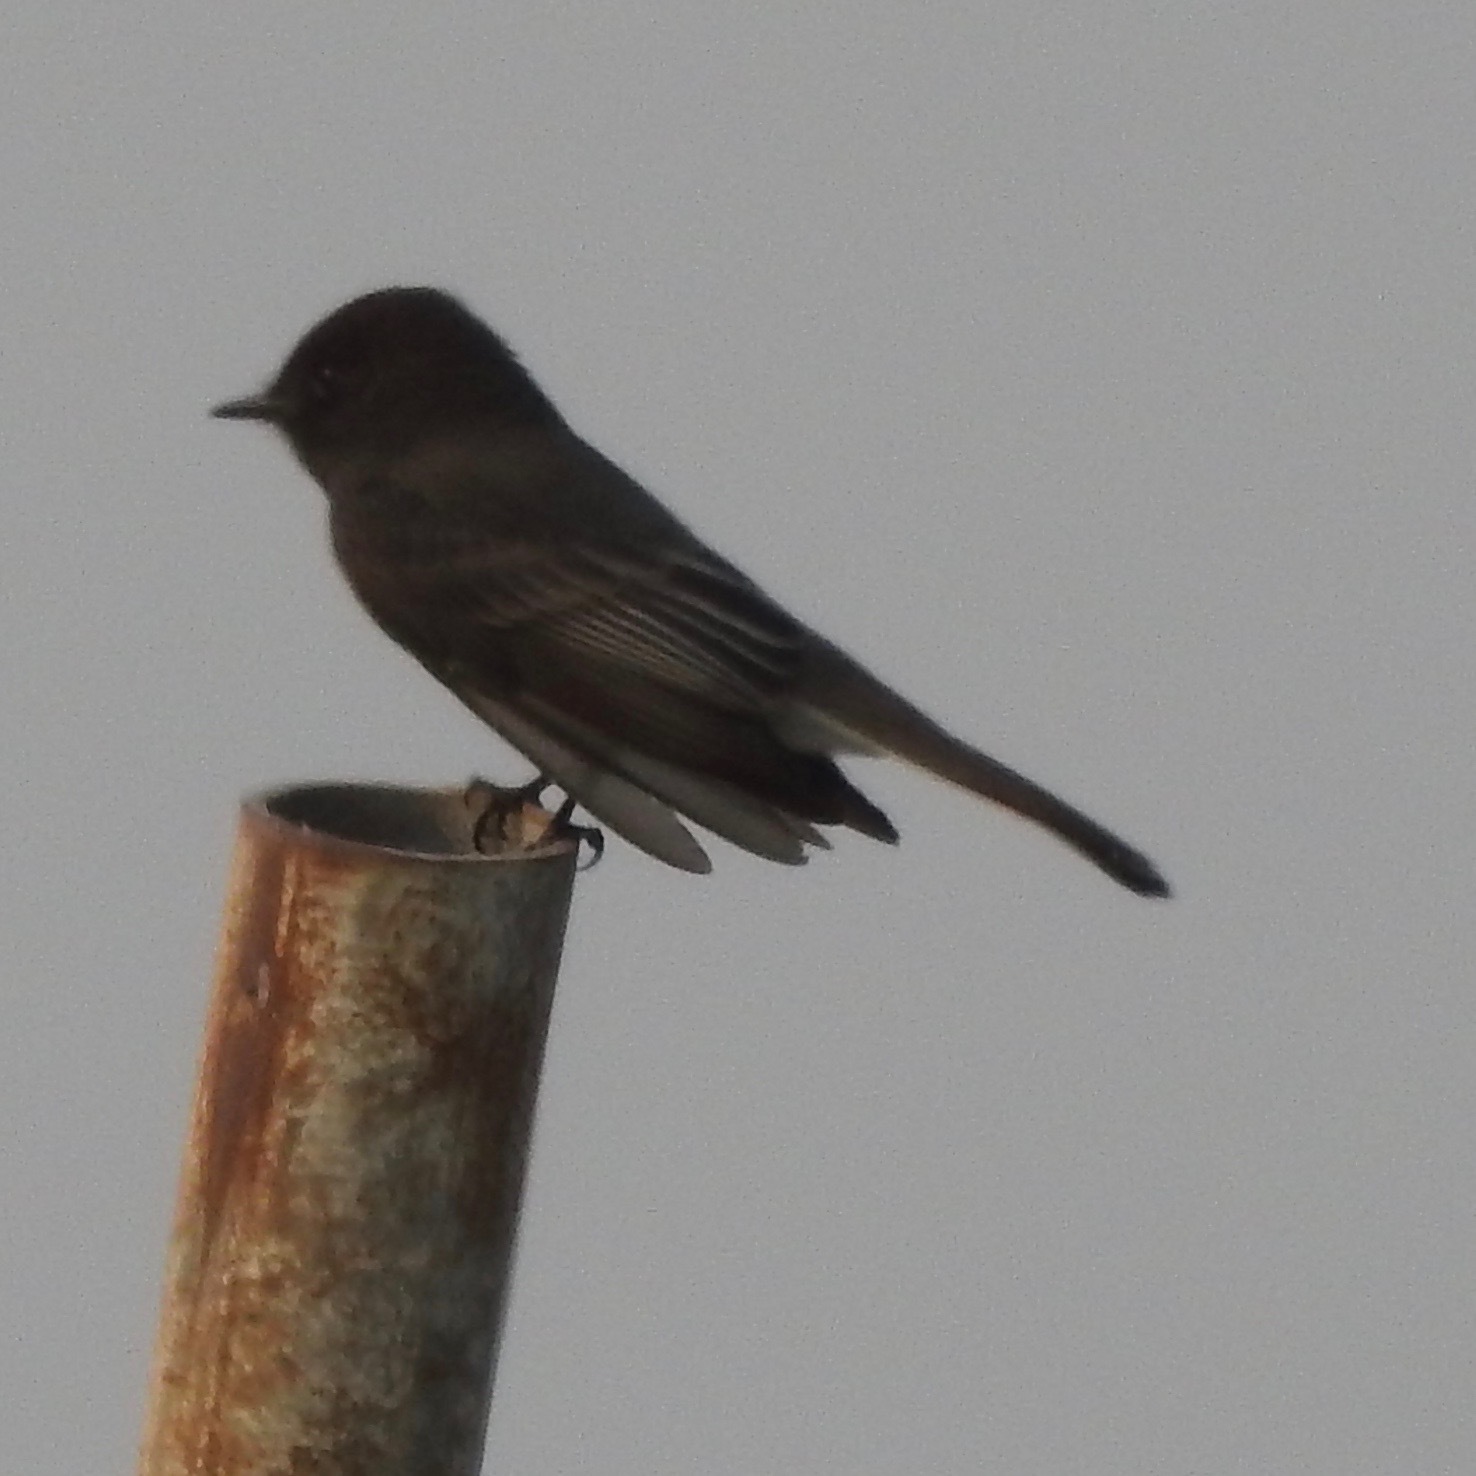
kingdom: Animalia
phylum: Chordata
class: Aves
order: Passeriformes
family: Tyrannidae
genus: Sayornis
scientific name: Sayornis nigricans
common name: Black phoebe
